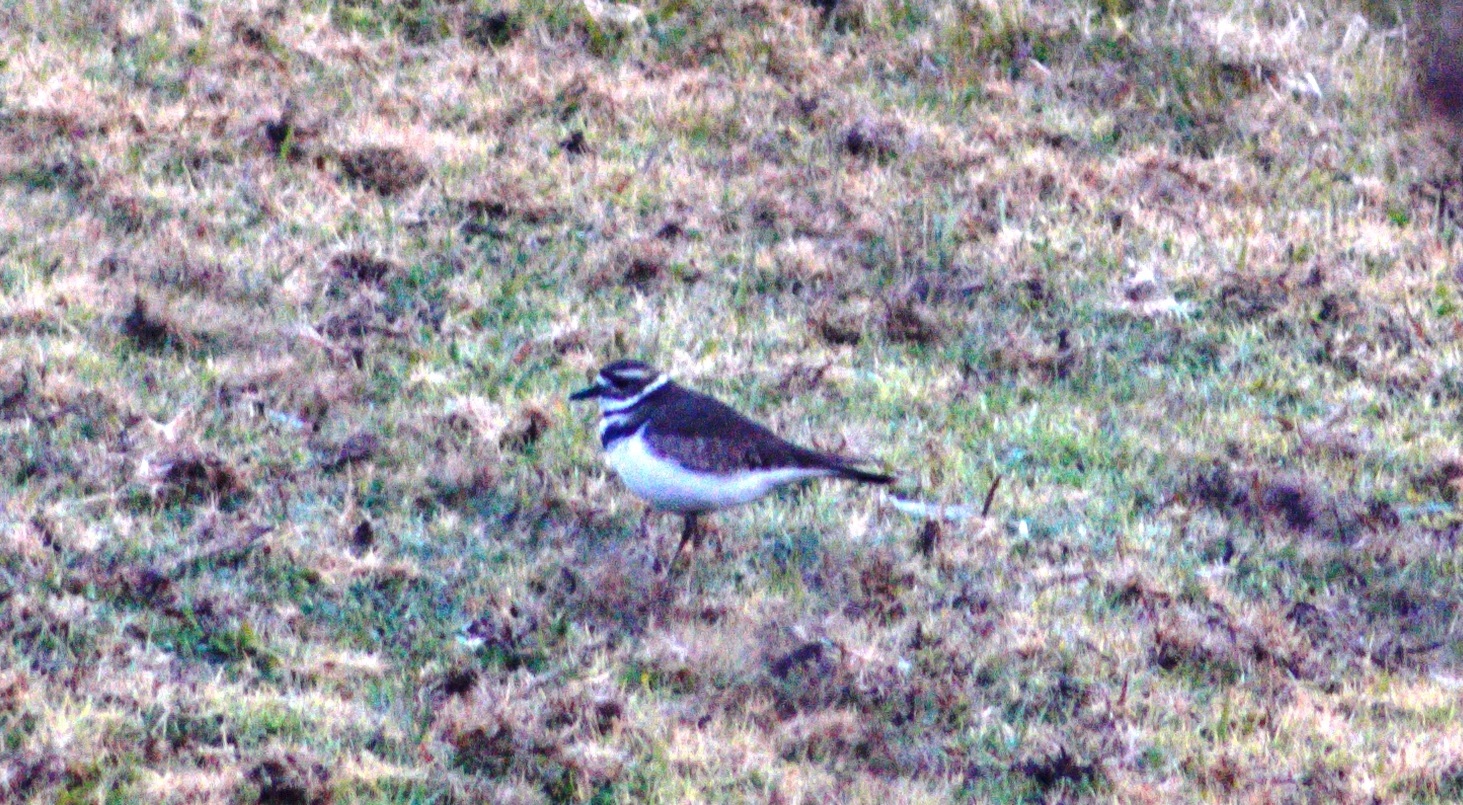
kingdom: Animalia
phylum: Chordata
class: Aves
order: Charadriiformes
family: Charadriidae
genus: Charadrius
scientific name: Charadrius vociferus
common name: Killdeer
